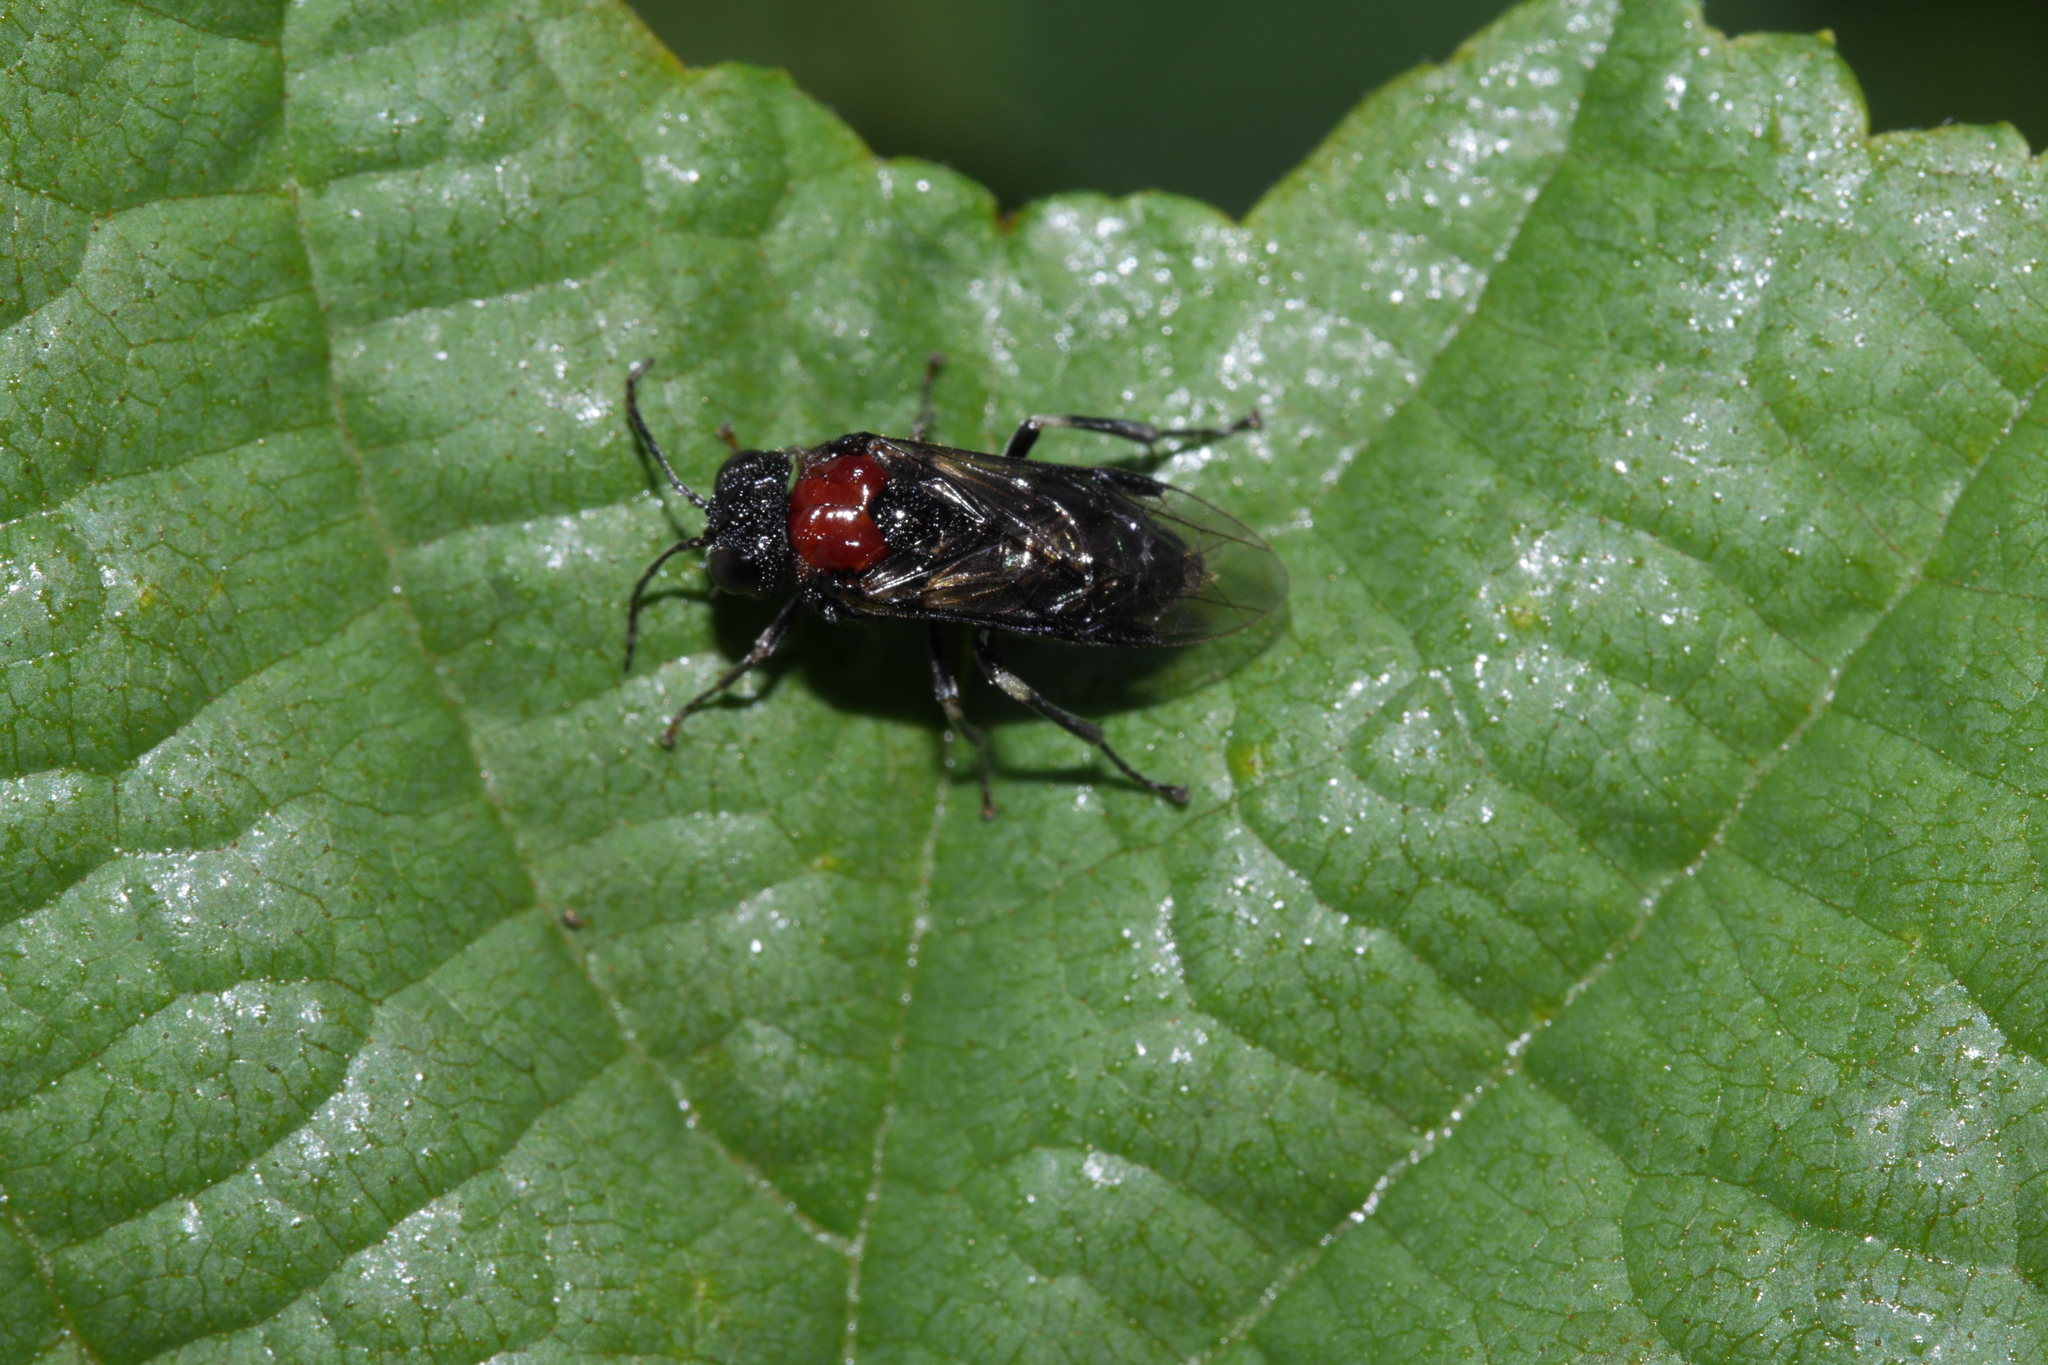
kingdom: Animalia
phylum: Arthropoda
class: Insecta
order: Hymenoptera
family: Tenthredinidae
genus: Eriocampa
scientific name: Eriocampa ovata
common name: Alder wooly sawfly
